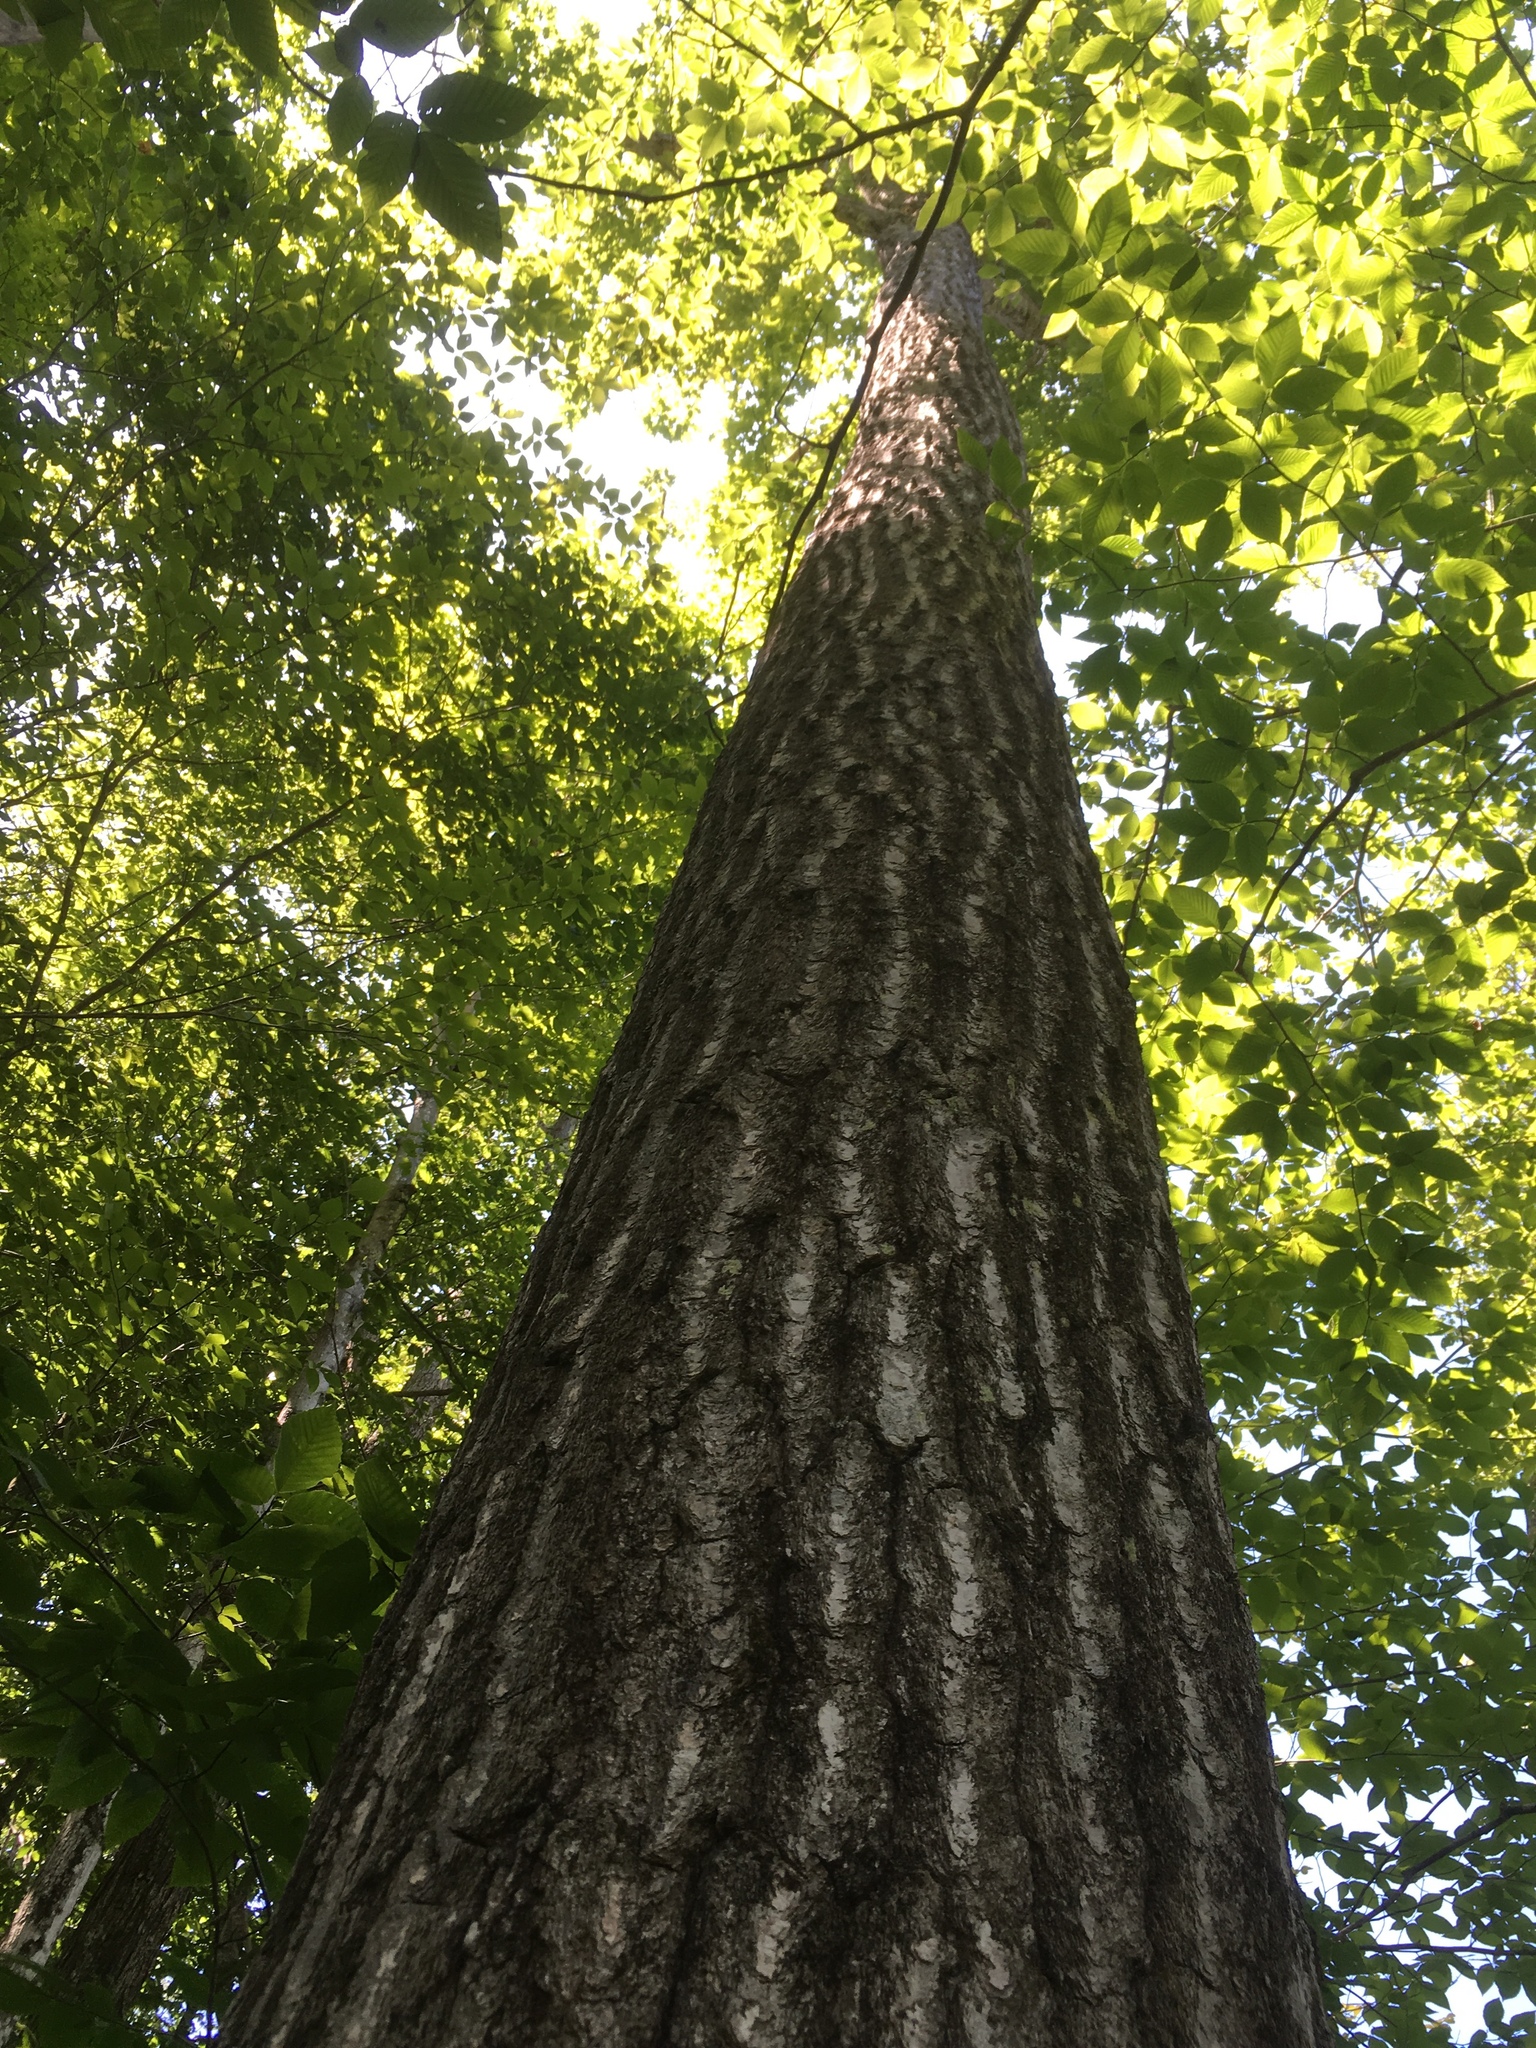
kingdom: Plantae
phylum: Tracheophyta
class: Magnoliopsida
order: Fagales
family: Fagaceae
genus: Quercus
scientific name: Quercus rubra
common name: Red oak
